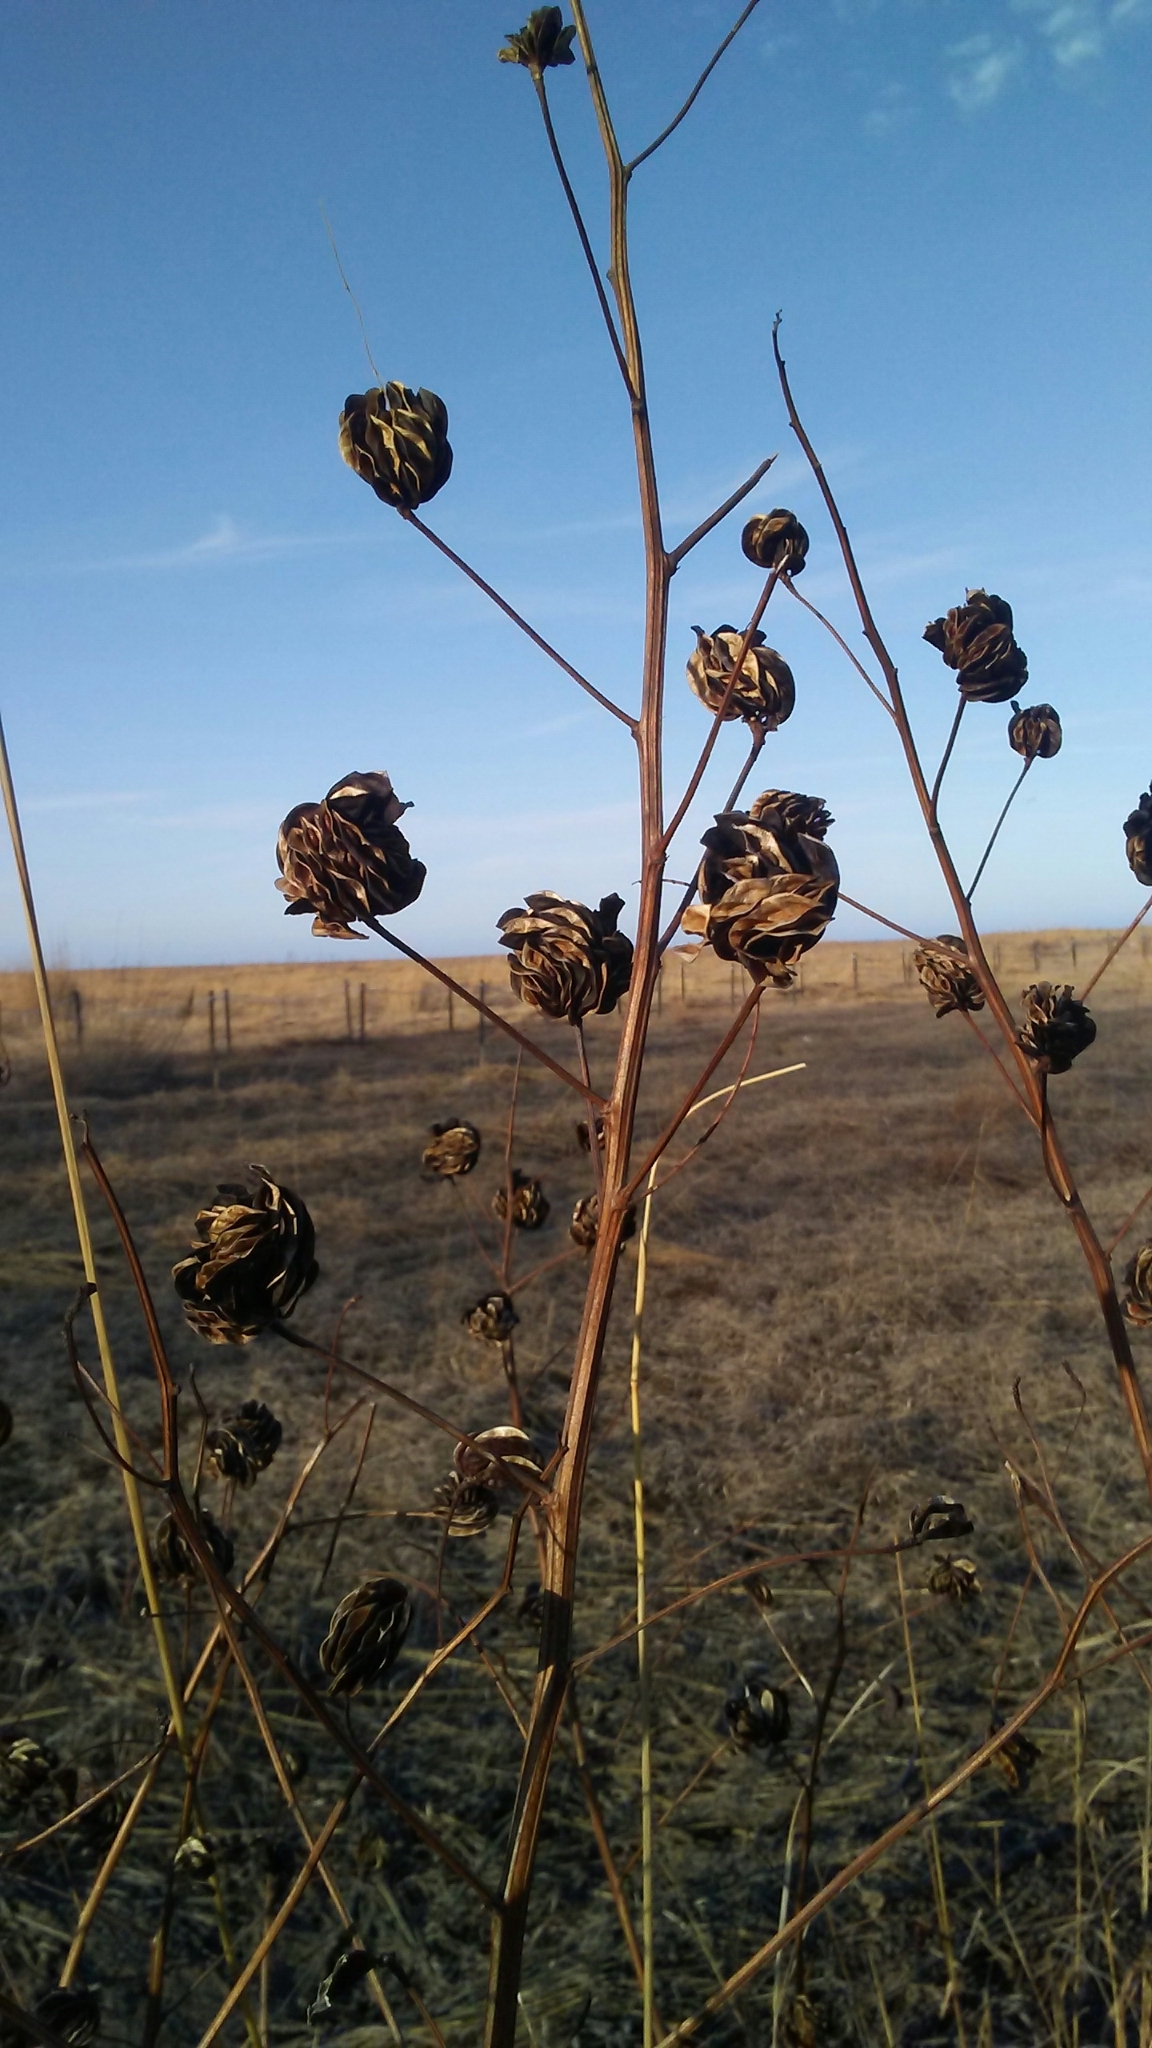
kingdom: Plantae
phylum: Tracheophyta
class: Magnoliopsida
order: Fabales
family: Fabaceae
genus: Desmanthus
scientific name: Desmanthus illinoensis
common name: Illinois bundle-flower
